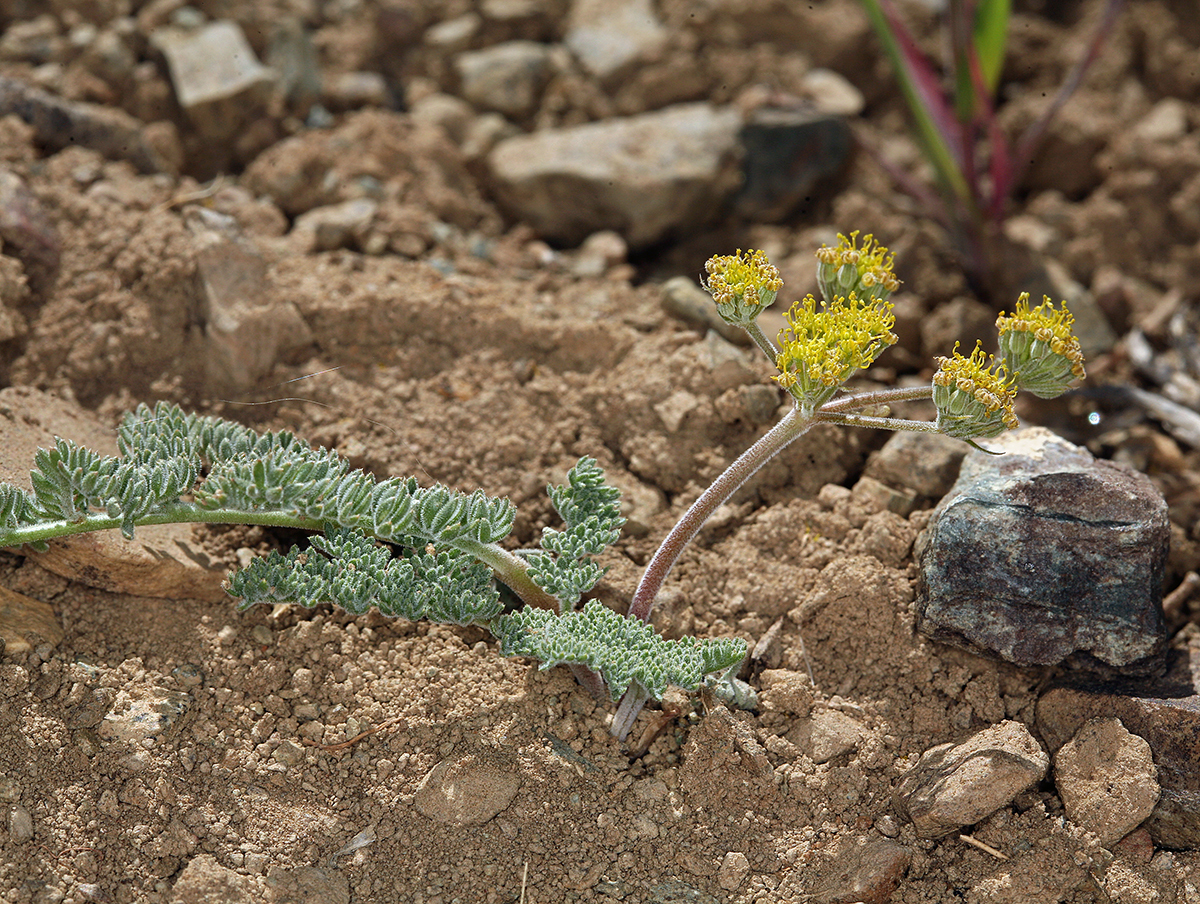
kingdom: Plantae
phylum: Tracheophyta
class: Magnoliopsida
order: Apiales
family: Apiaceae
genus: Lomatium
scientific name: Lomatium foeniculaceum
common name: Desert-parsley
